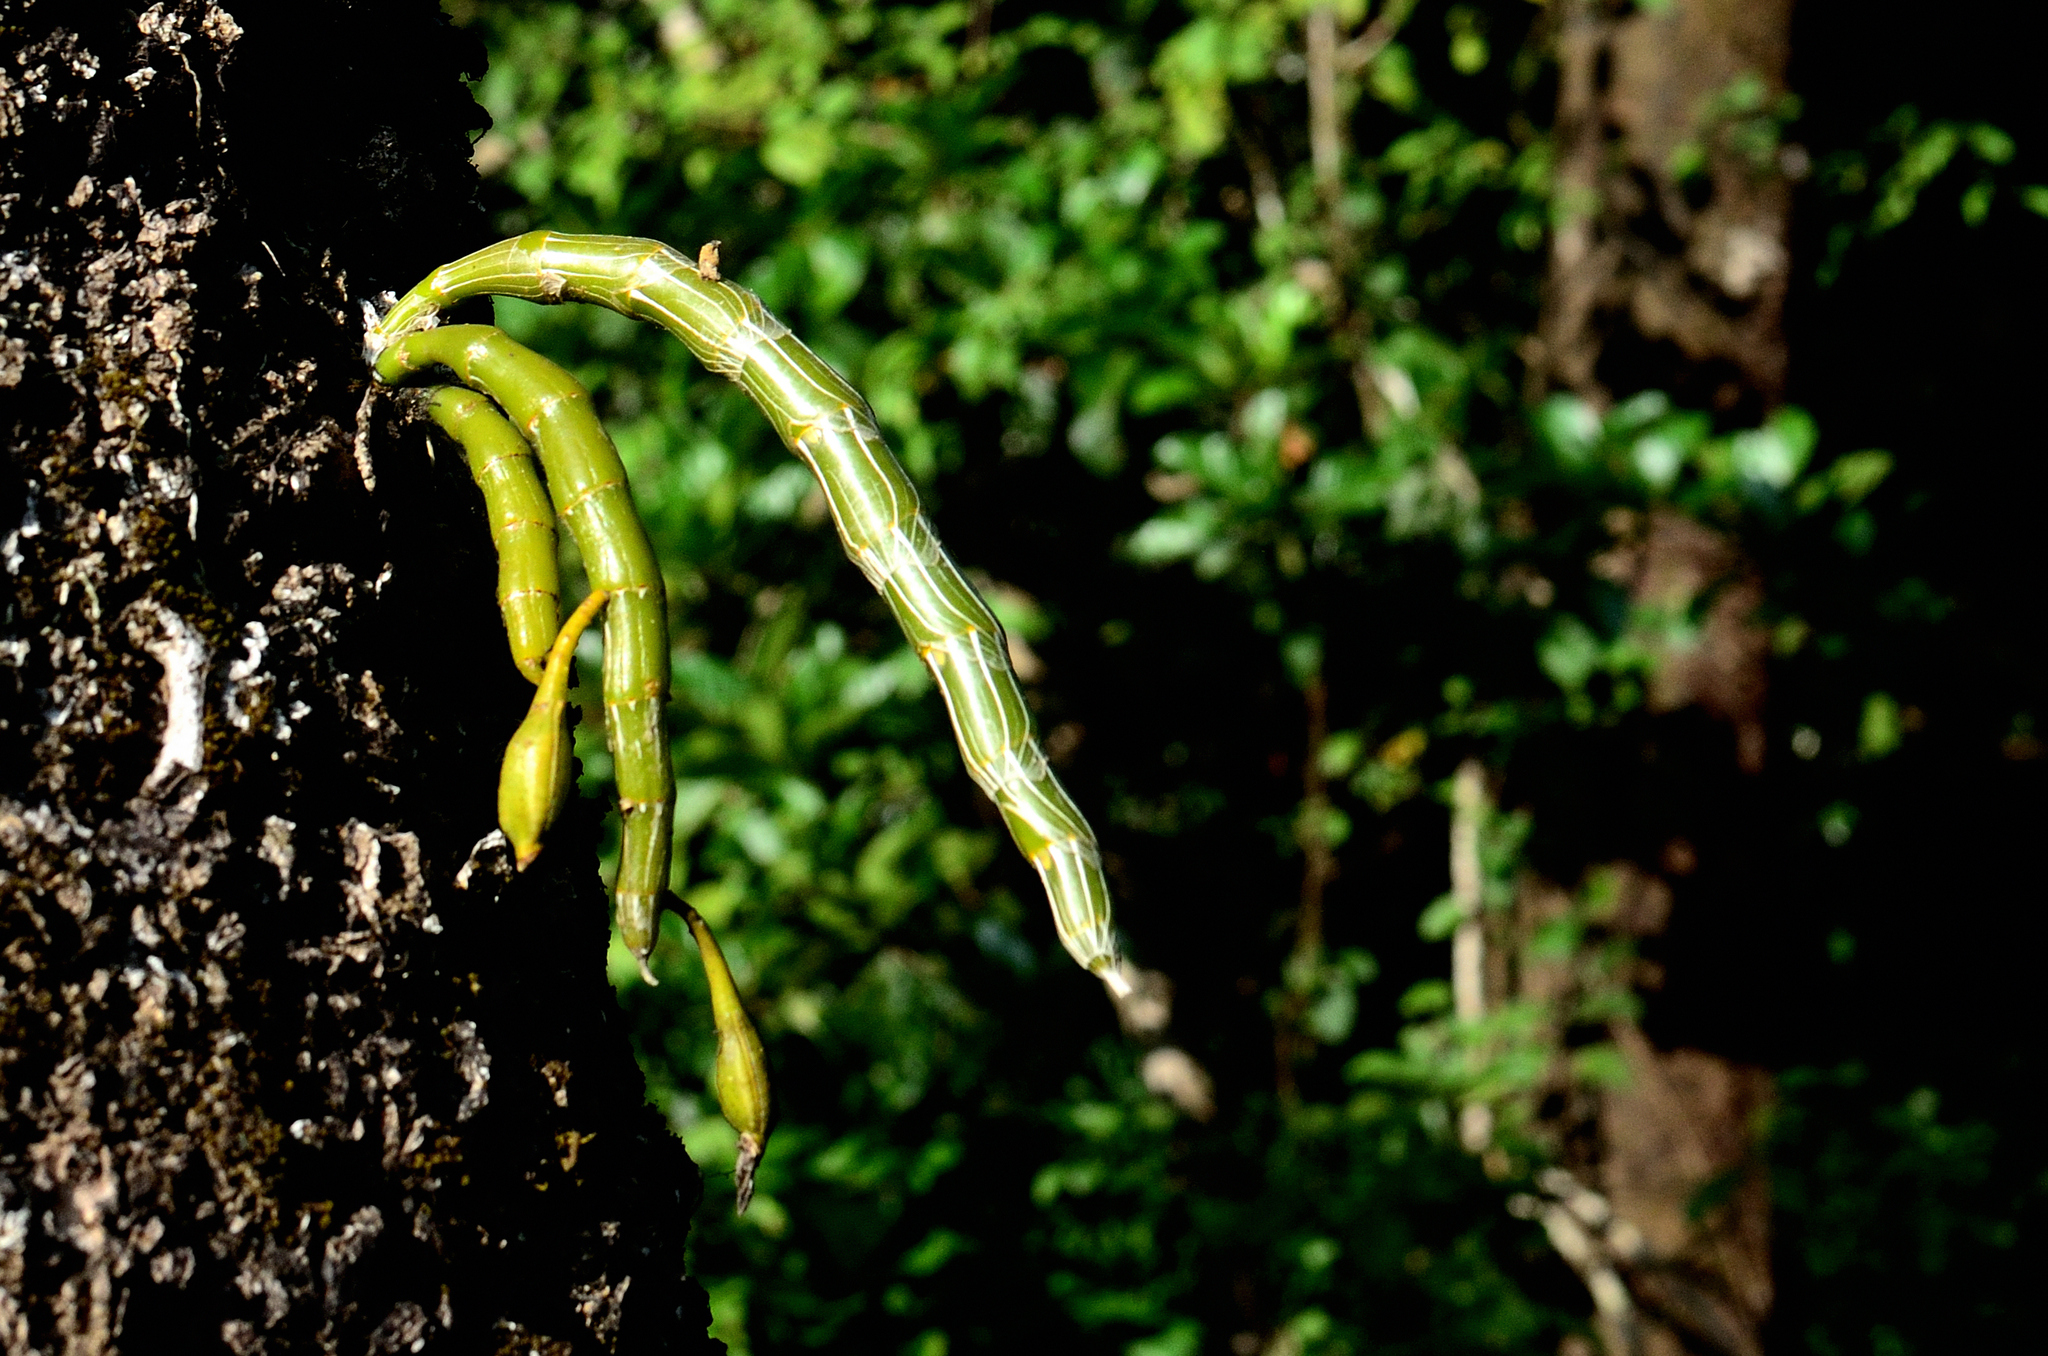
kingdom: Plantae
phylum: Tracheophyta
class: Liliopsida
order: Asparagales
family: Orchidaceae
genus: Dendrobium
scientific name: Dendrobium crepidatum
